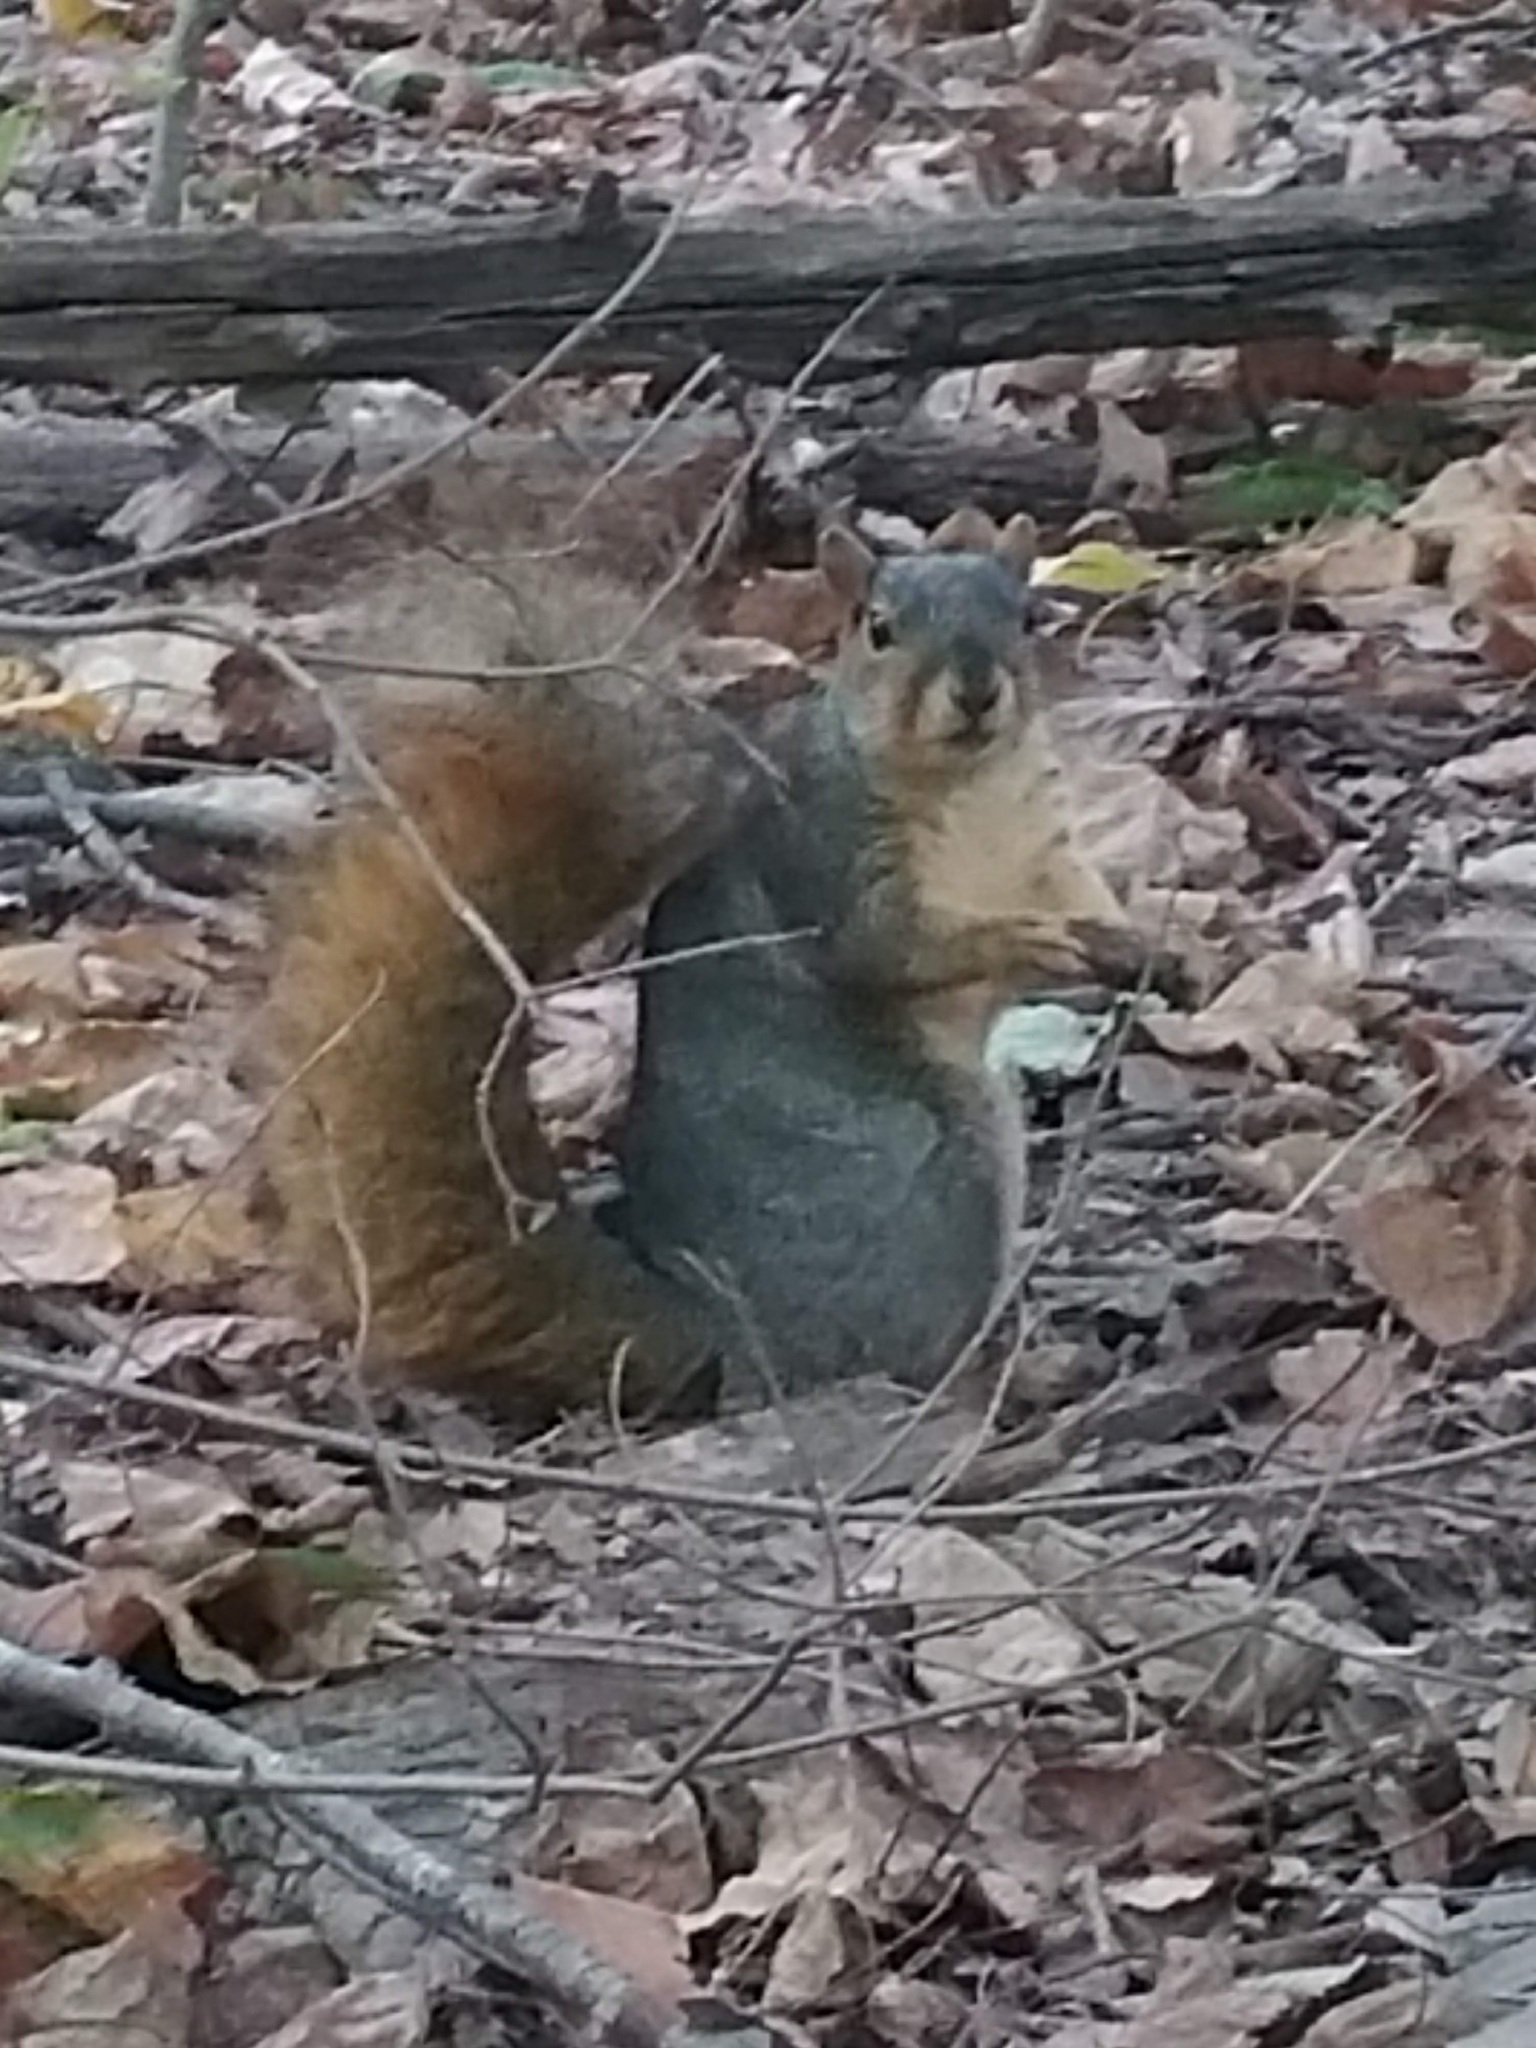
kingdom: Animalia
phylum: Chordata
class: Mammalia
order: Rodentia
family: Sciuridae
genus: Sciurus
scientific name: Sciurus niger
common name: Fox squirrel
